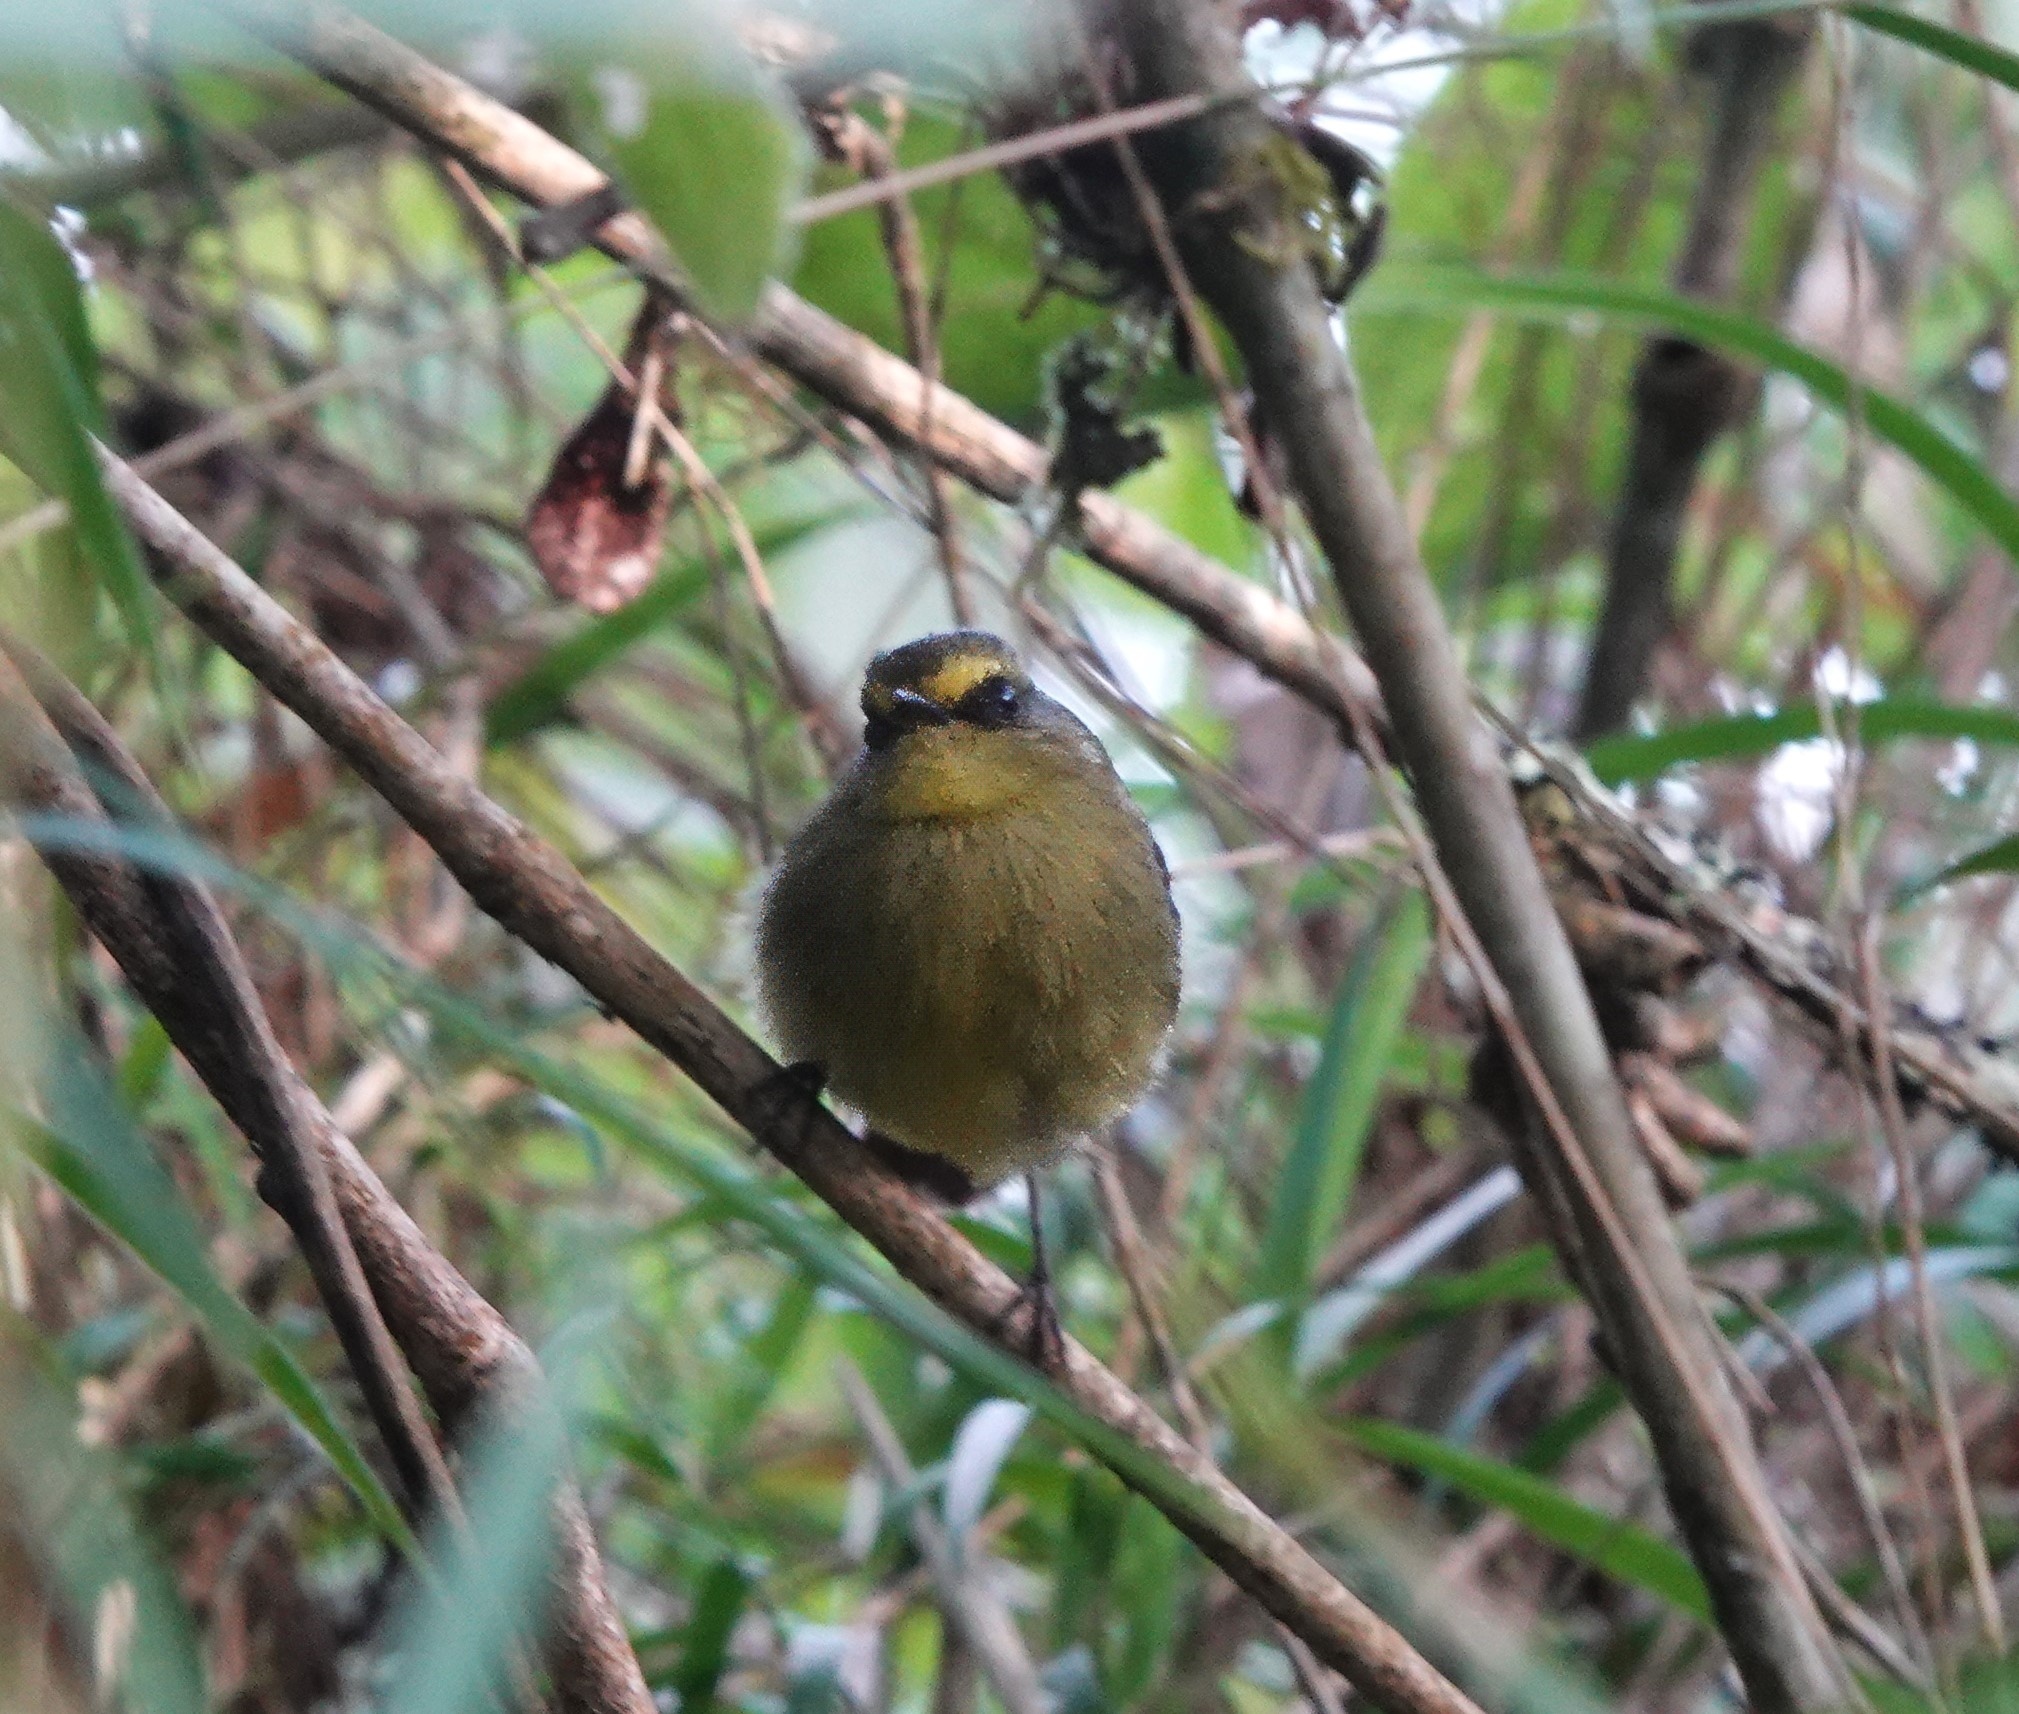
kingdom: Animalia
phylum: Chordata
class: Aves
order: Passeriformes
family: Tyrannidae
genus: Ochthoeca
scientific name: Ochthoeca diadema
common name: Yellow-bellied chat-tyrant
